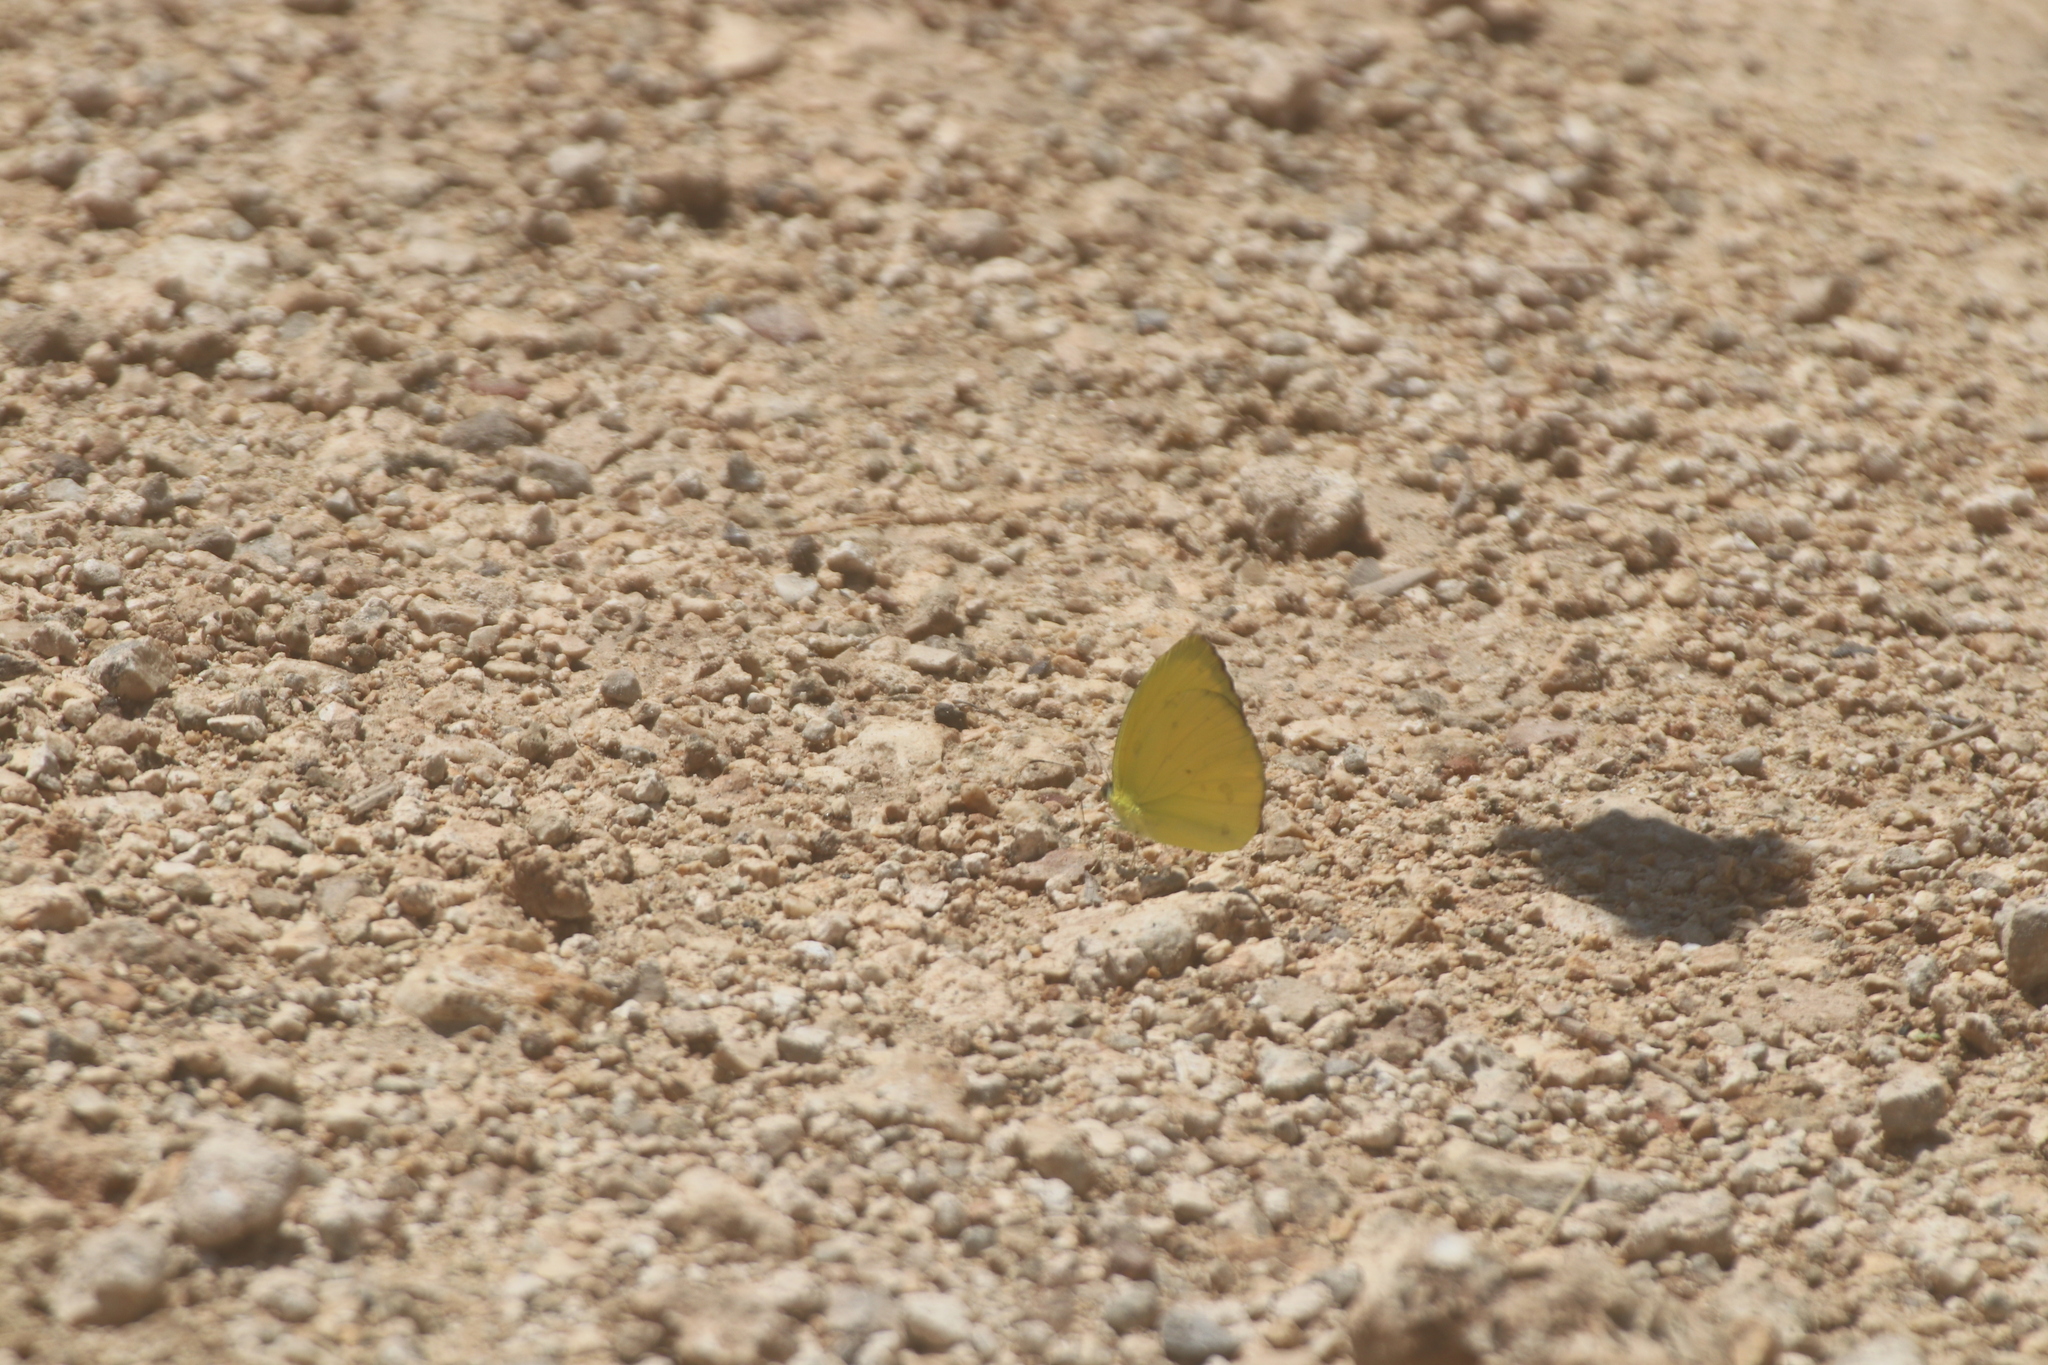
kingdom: Animalia
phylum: Arthropoda
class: Insecta
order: Lepidoptera
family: Pieridae
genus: Pyrisitia
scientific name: Pyrisitia westwoodi
